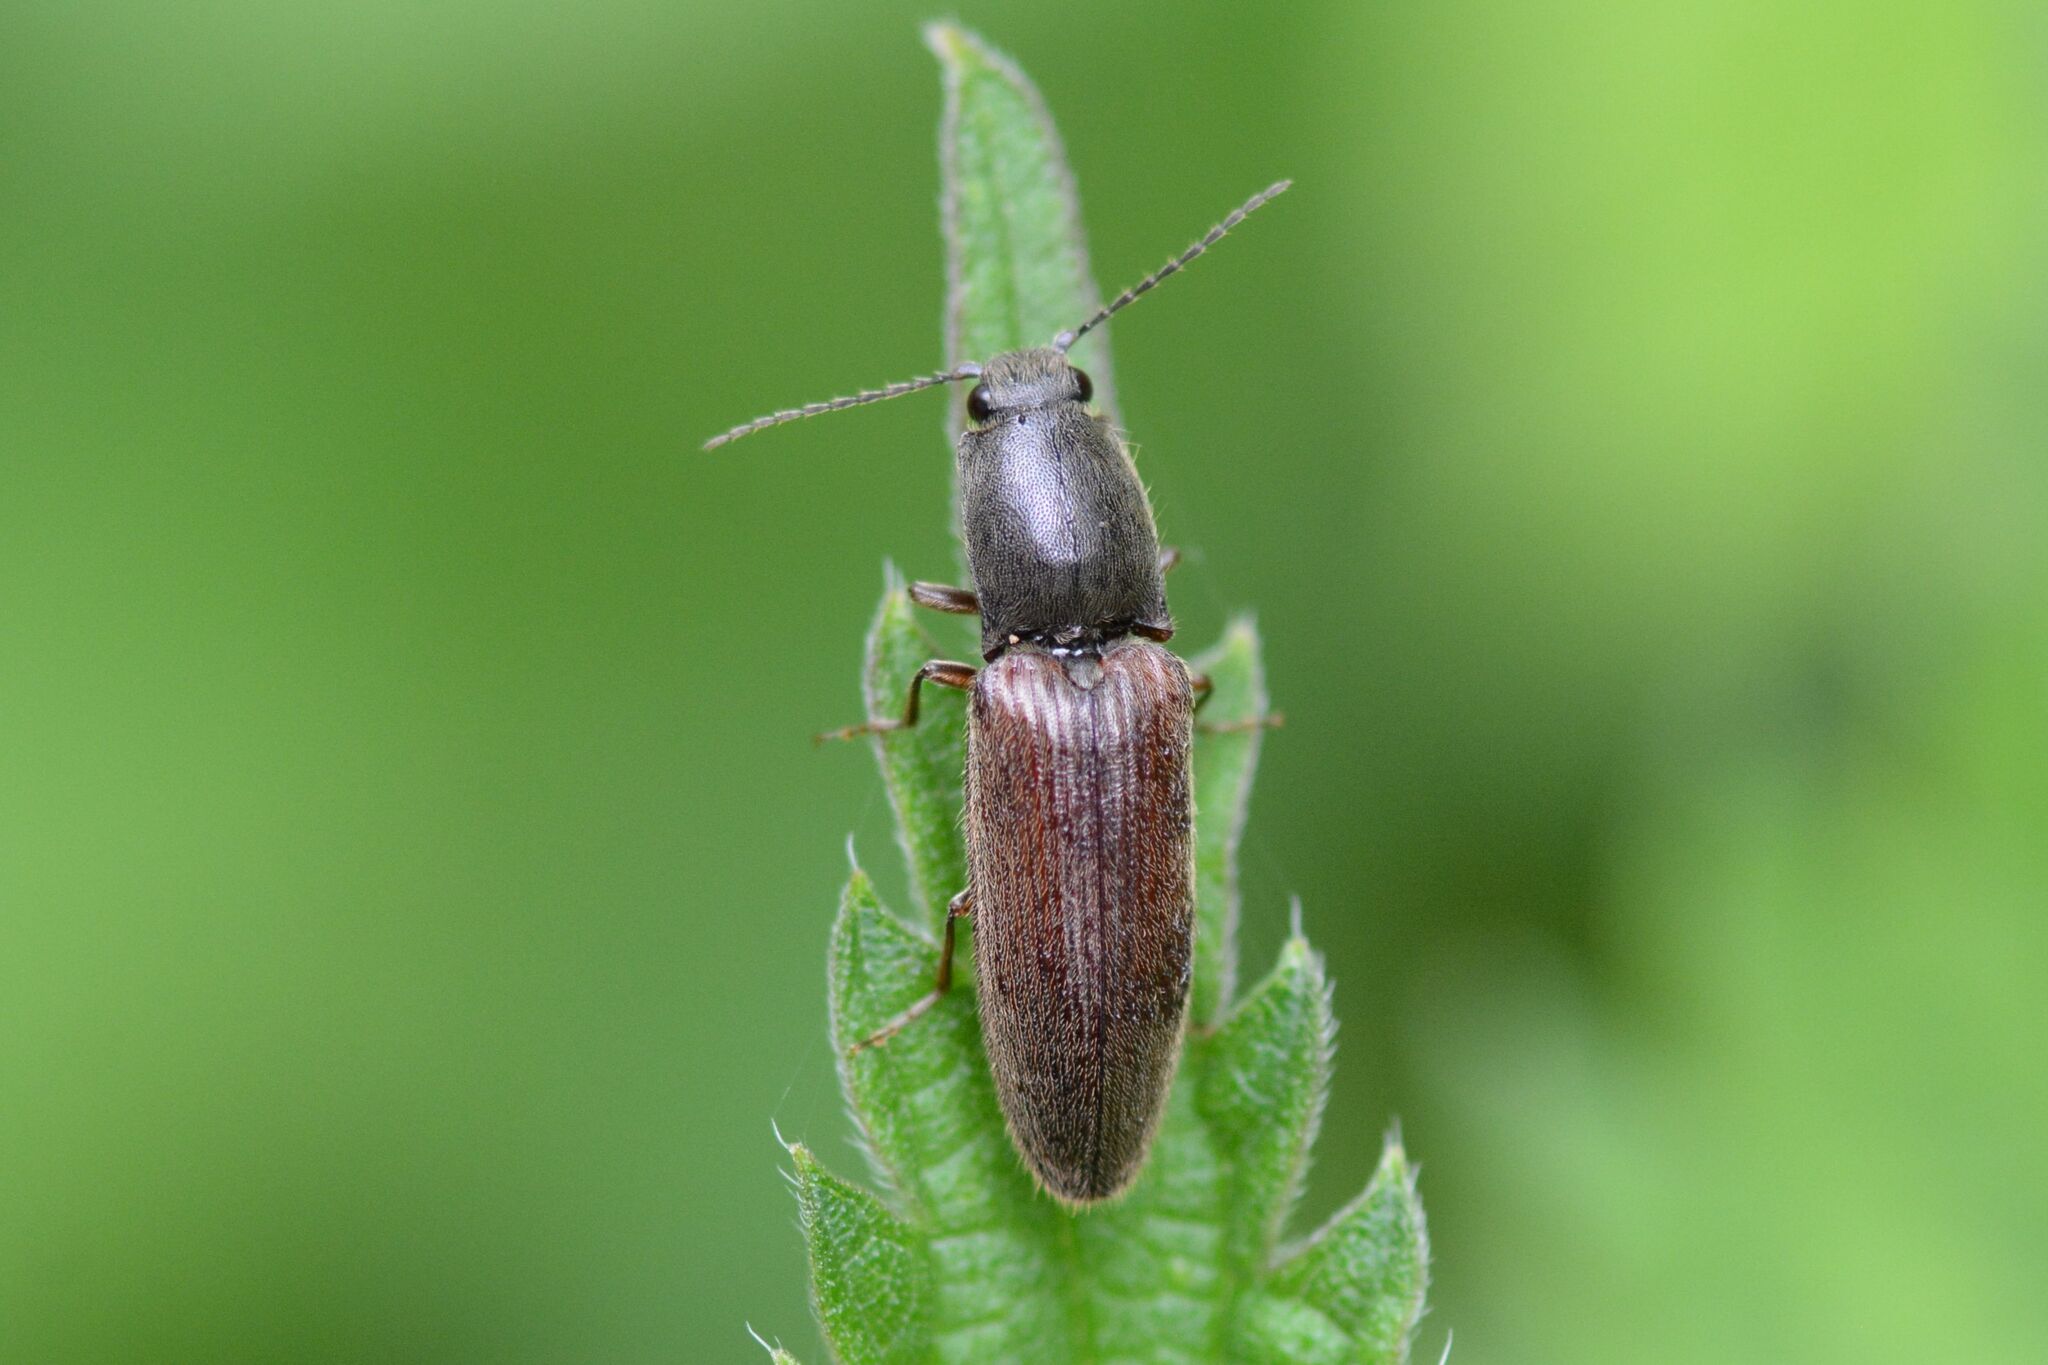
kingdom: Animalia
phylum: Arthropoda
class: Insecta
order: Coleoptera
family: Elateridae
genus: Athous
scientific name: Athous haemorrhoidalis
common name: Red-brown click beetle
